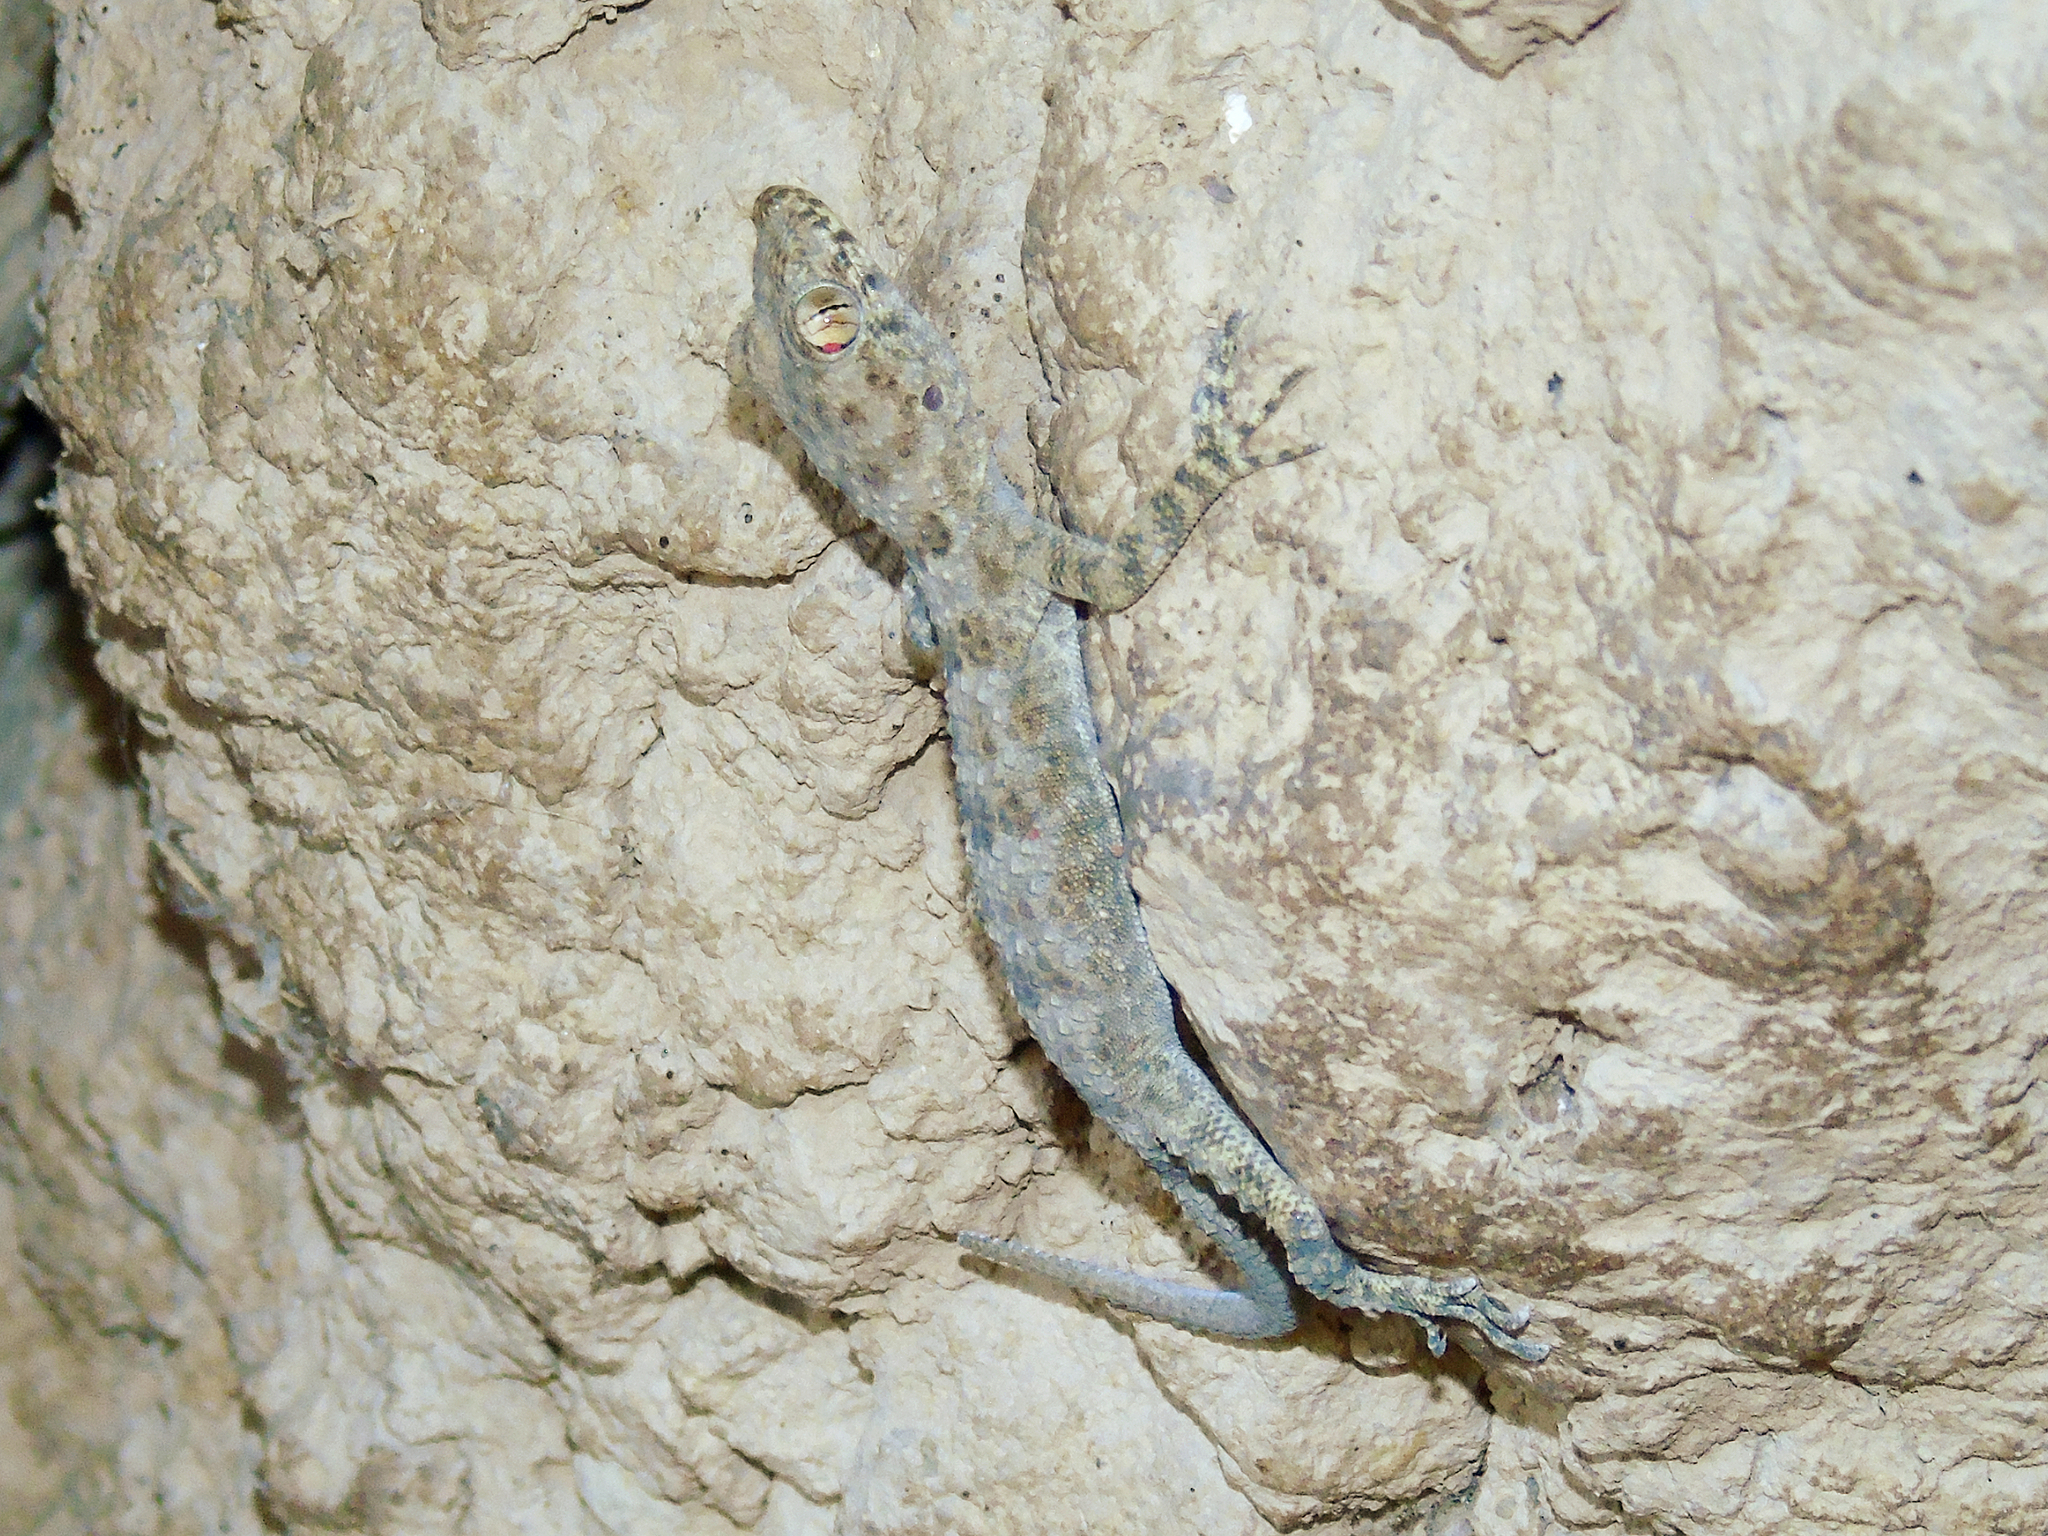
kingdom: Animalia
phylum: Chordata
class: Squamata
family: Gekkonidae
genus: Tenuidactylus
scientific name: Tenuidactylus fedtschenkoi
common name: Turkestan thin-toed gecko
